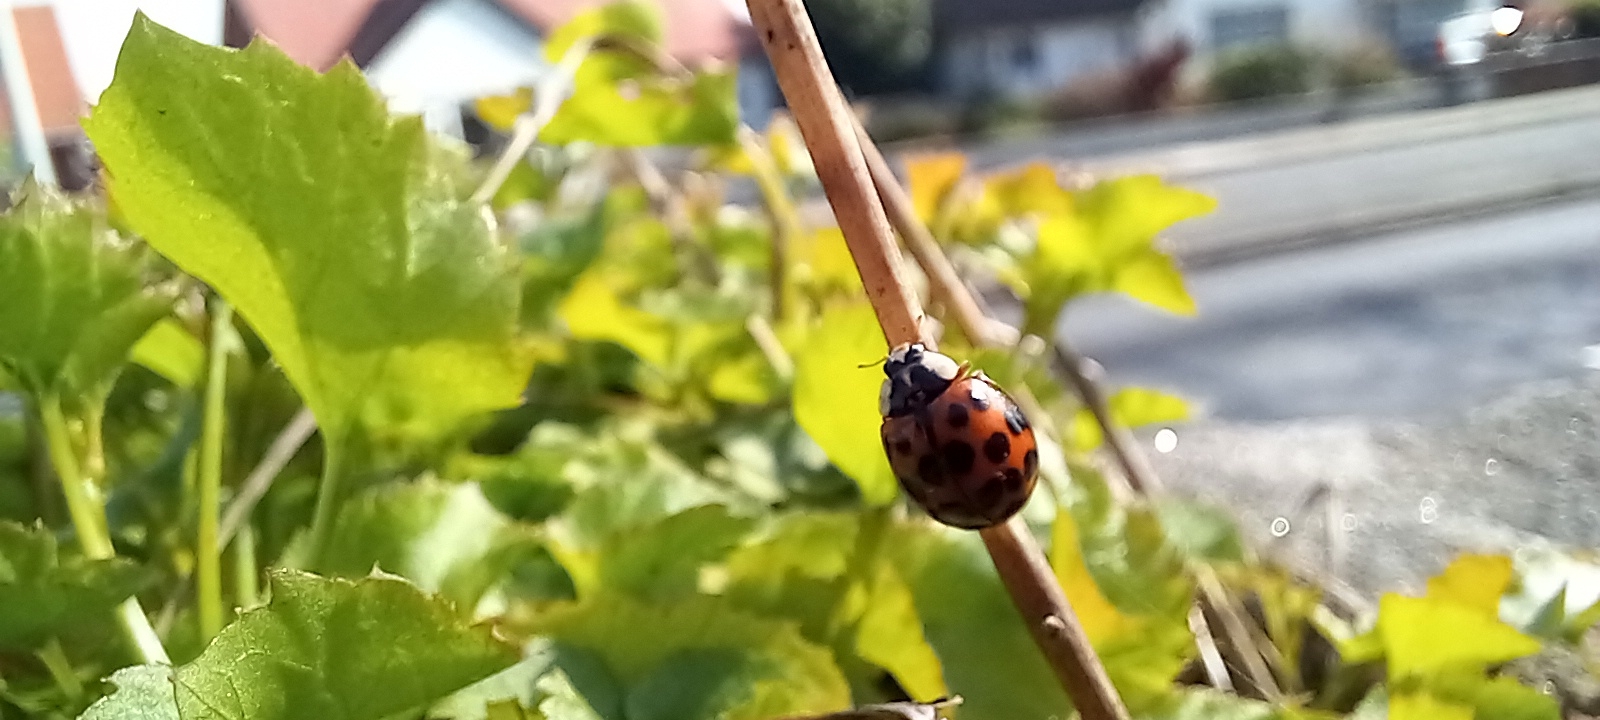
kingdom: Animalia
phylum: Arthropoda
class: Insecta
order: Coleoptera
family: Coccinellidae
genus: Harmonia
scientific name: Harmonia axyridis
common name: Harlequin ladybird
